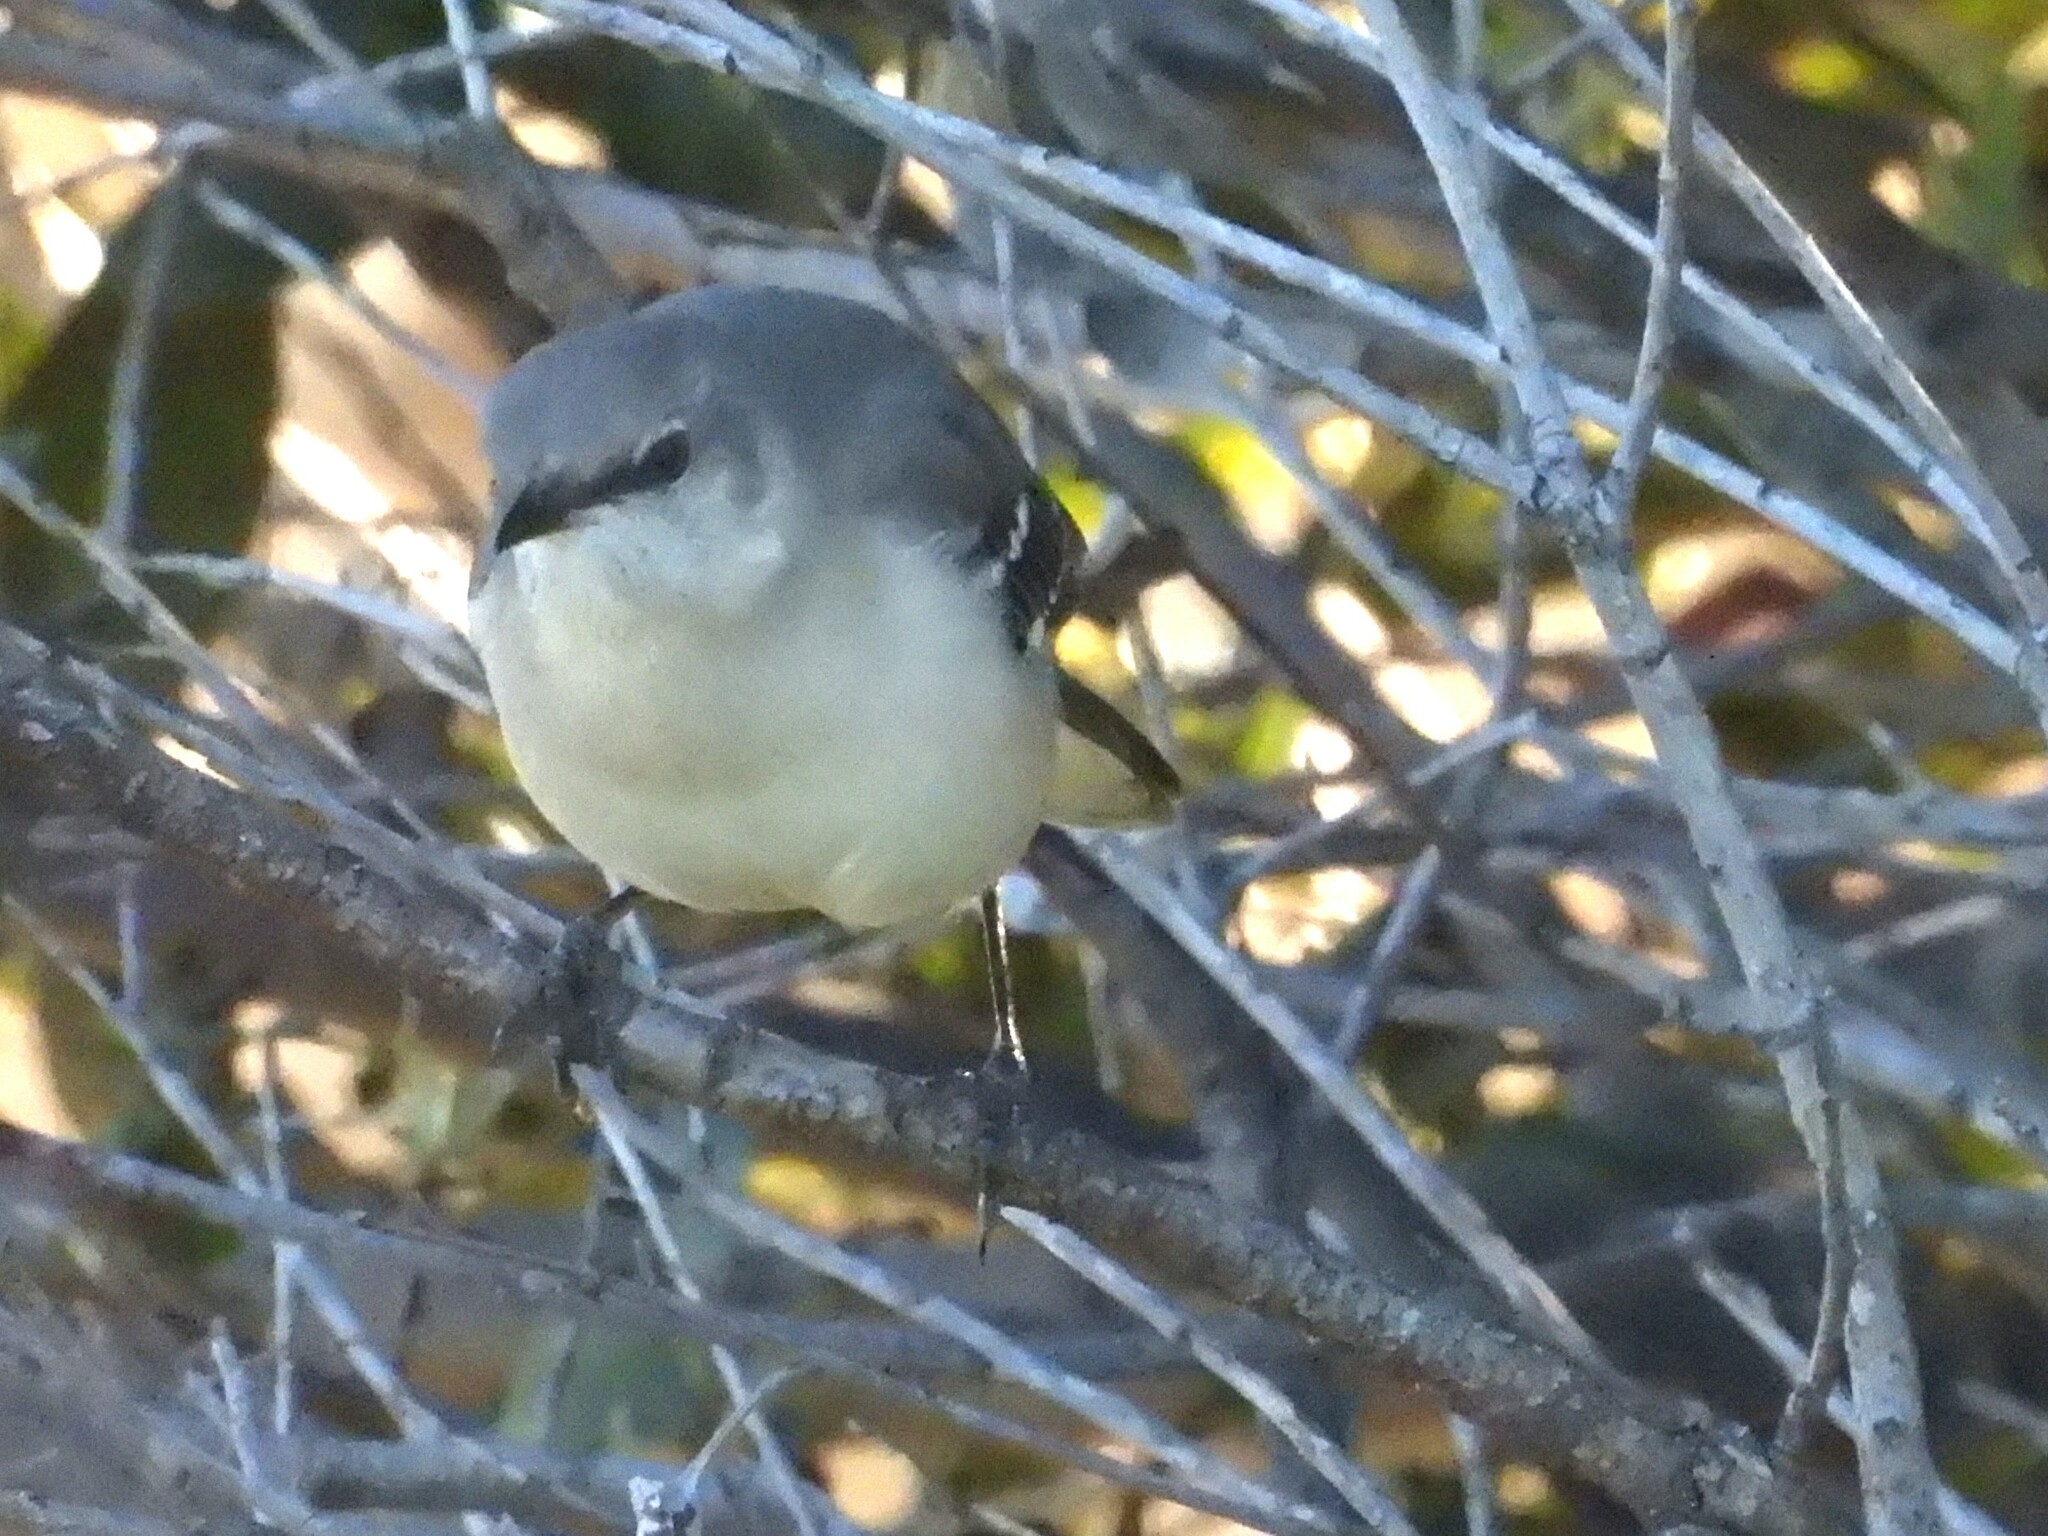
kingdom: Animalia
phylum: Chordata
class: Aves
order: Passeriformes
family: Mimidae
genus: Mimus
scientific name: Mimus polyglottos
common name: Northern mockingbird
